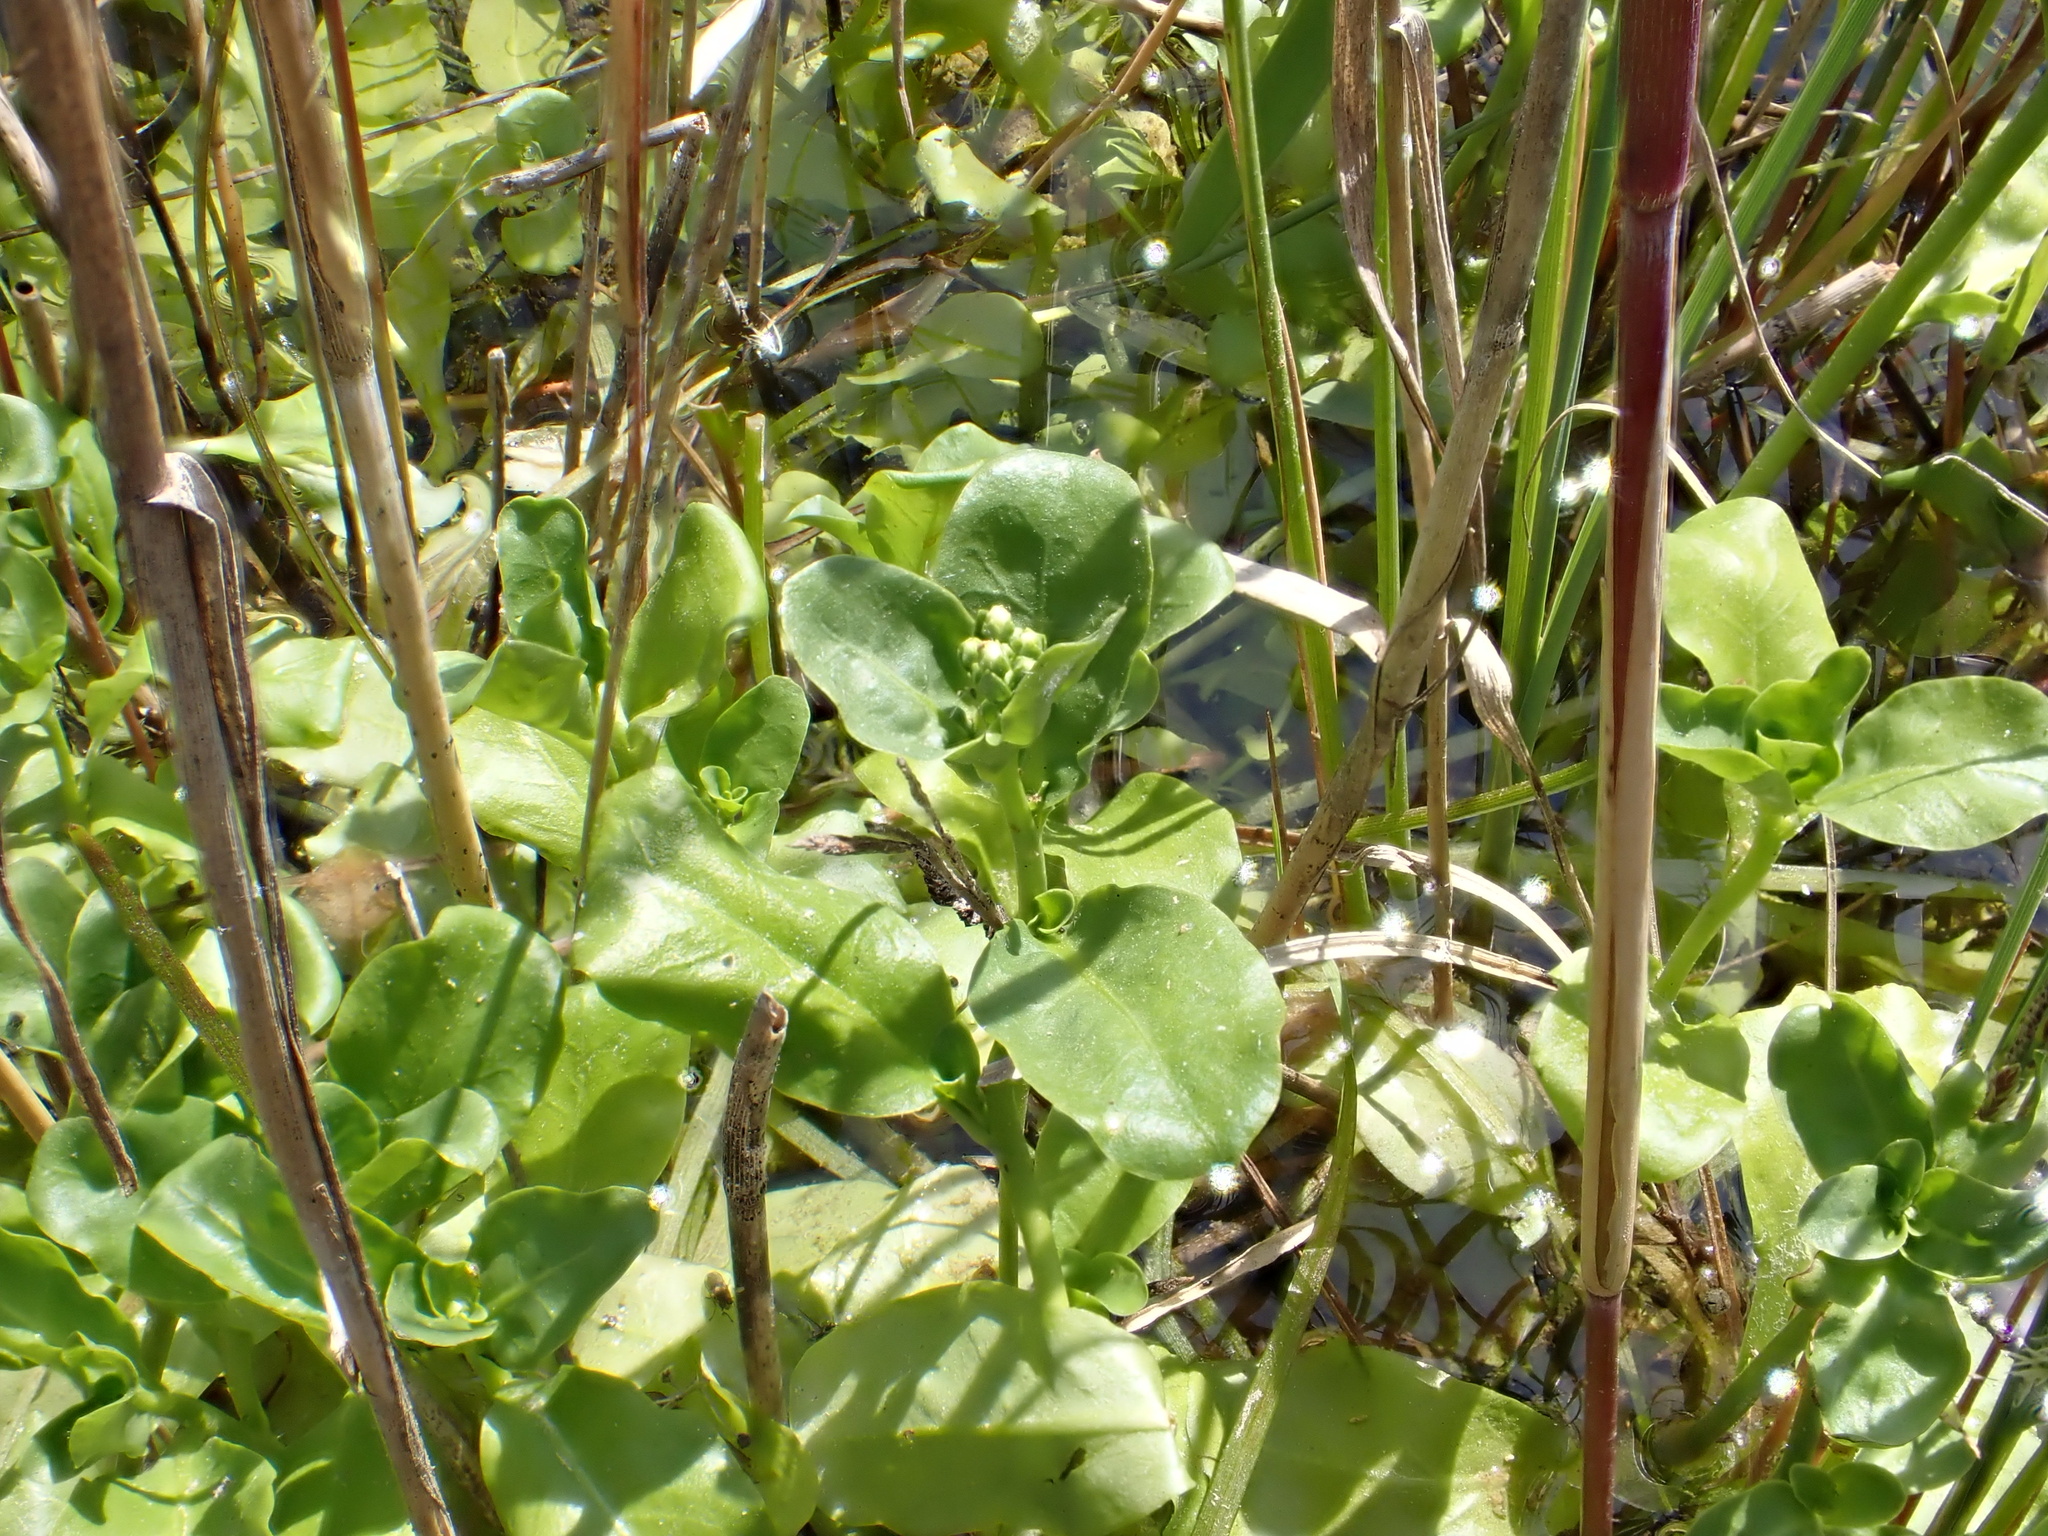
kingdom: Plantae
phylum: Tracheophyta
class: Magnoliopsida
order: Ericales
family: Primulaceae
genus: Samolus
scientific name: Samolus valerandi
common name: Brookweed
